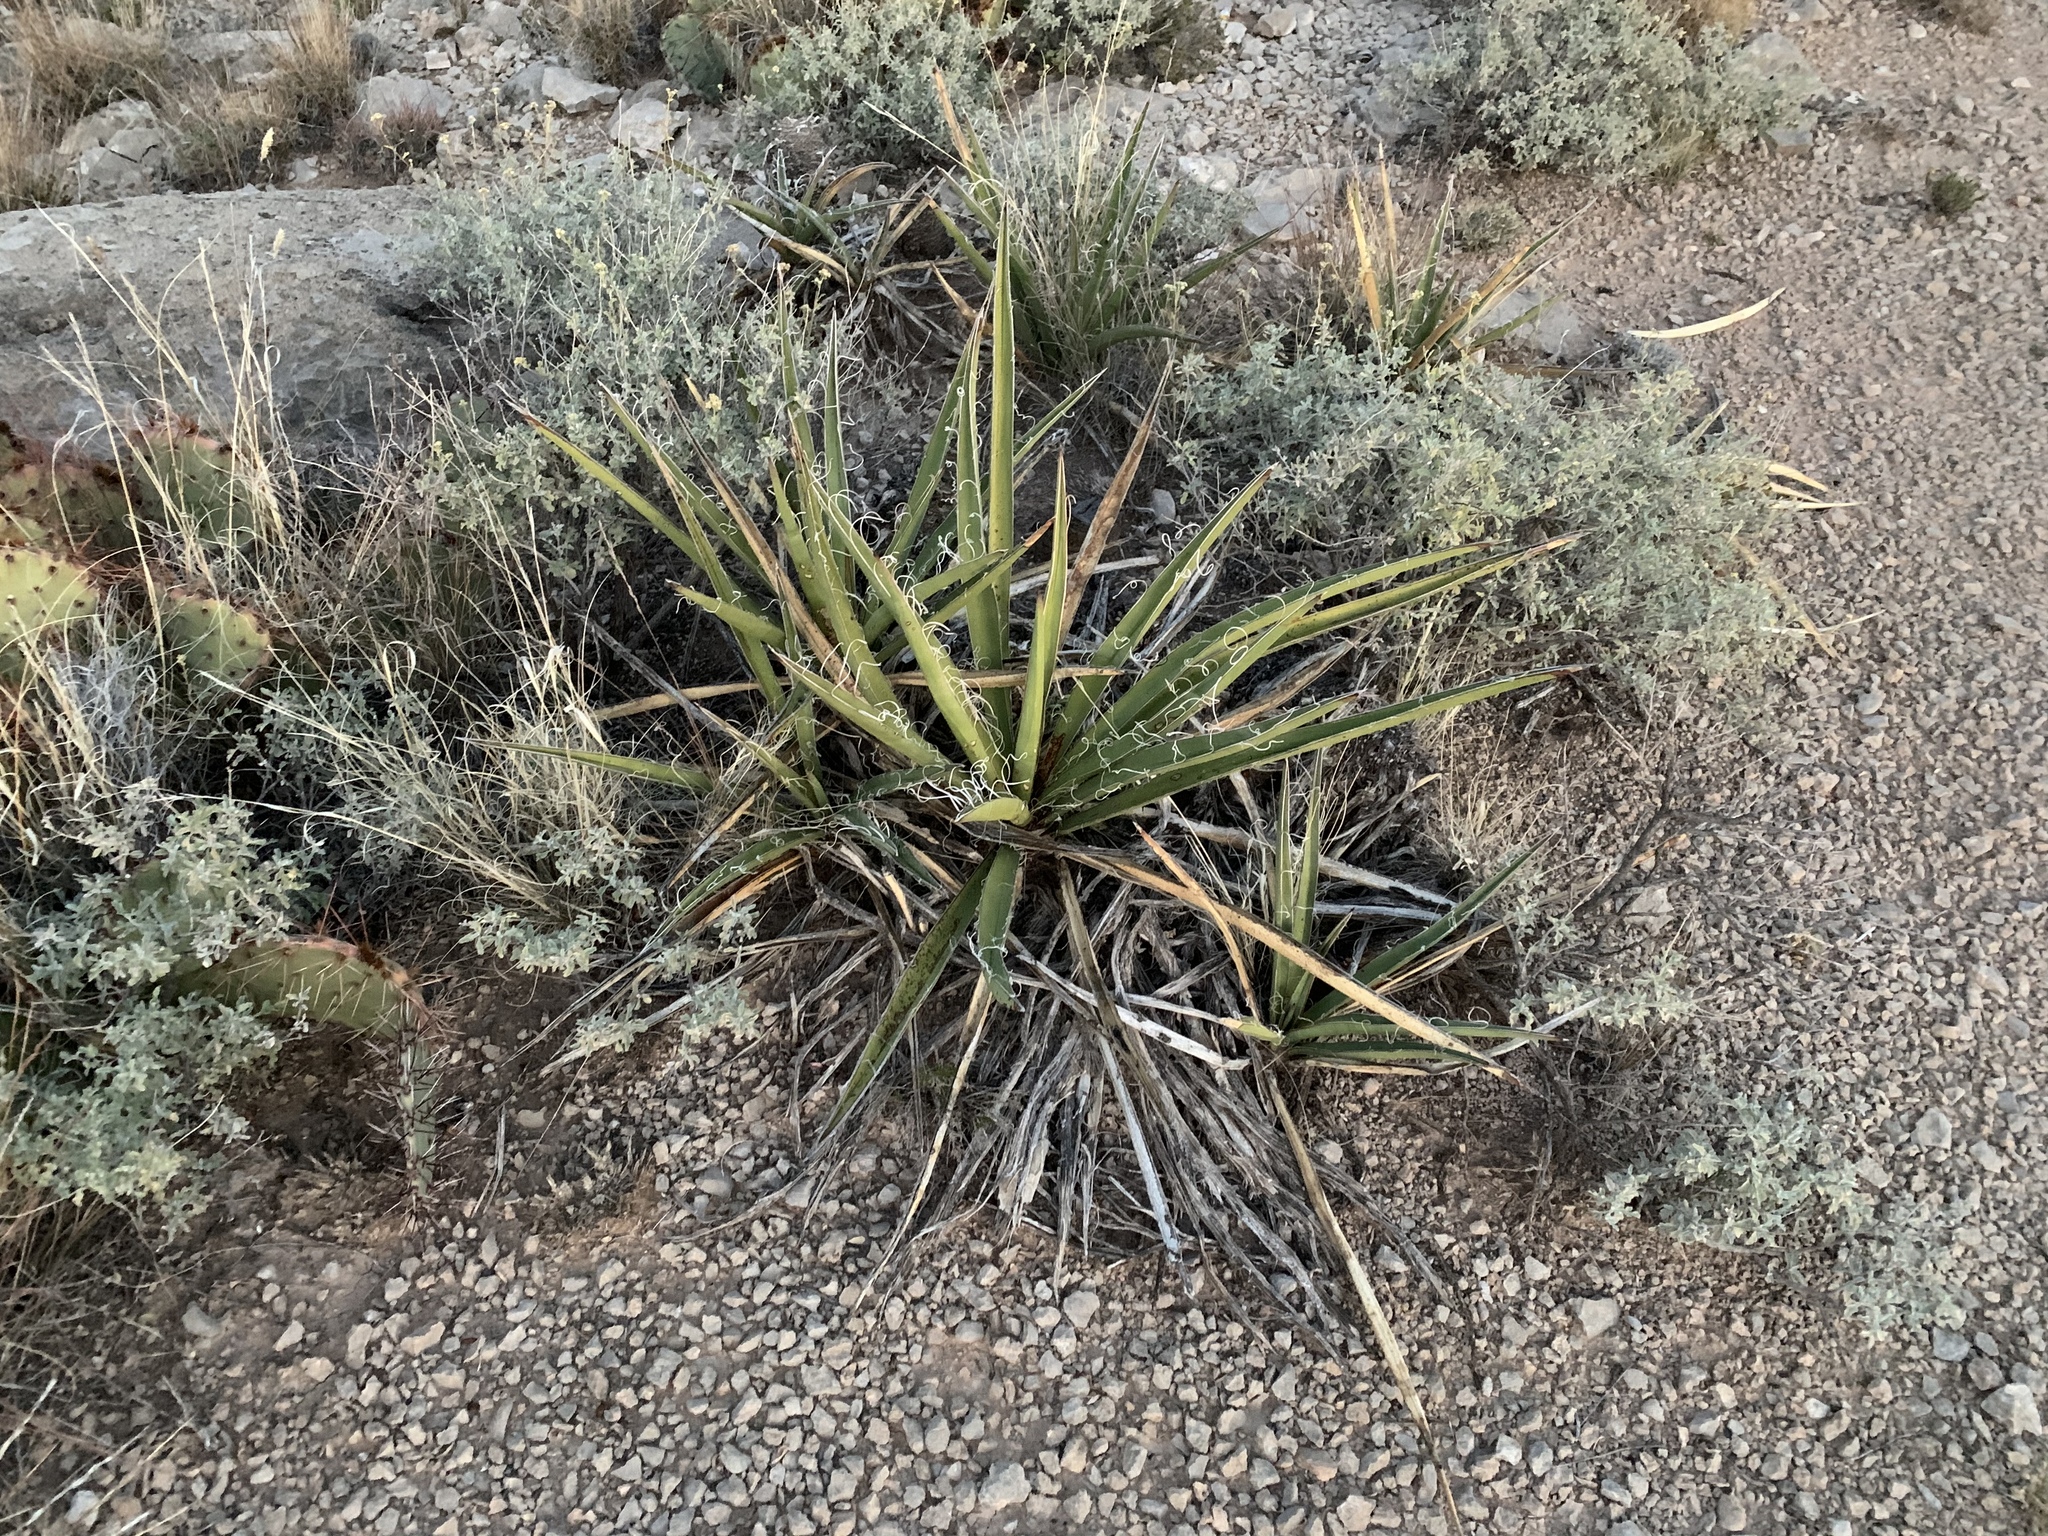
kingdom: Plantae
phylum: Tracheophyta
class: Liliopsida
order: Asparagales
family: Asparagaceae
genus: Yucca
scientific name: Yucca baccata
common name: Banana yucca
